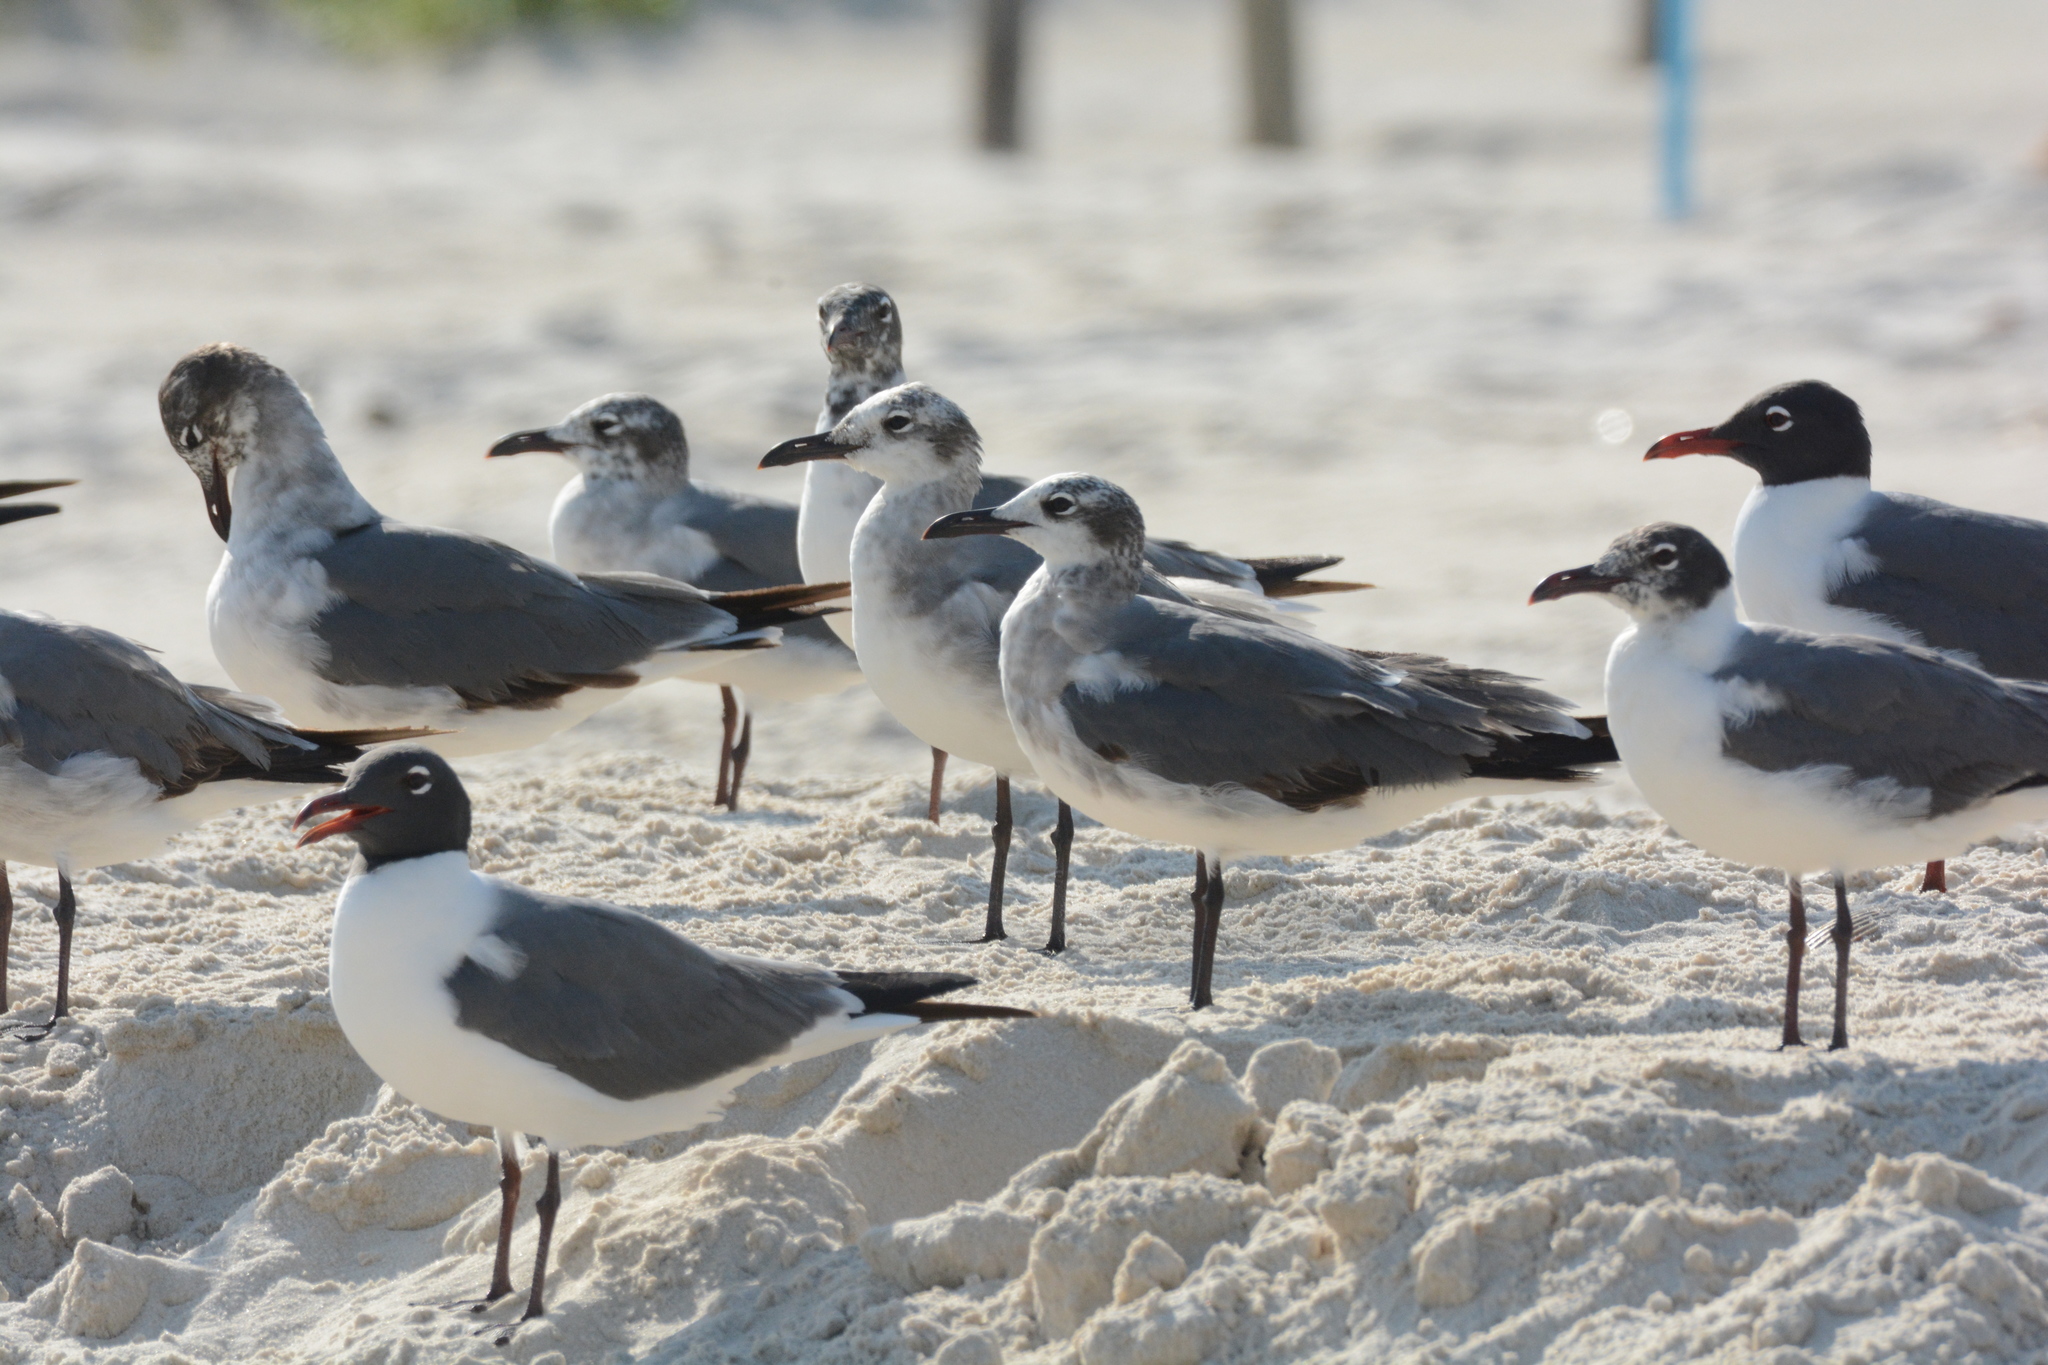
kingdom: Animalia
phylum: Chordata
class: Aves
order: Charadriiformes
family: Laridae
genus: Leucophaeus
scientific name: Leucophaeus atricilla
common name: Laughing gull
